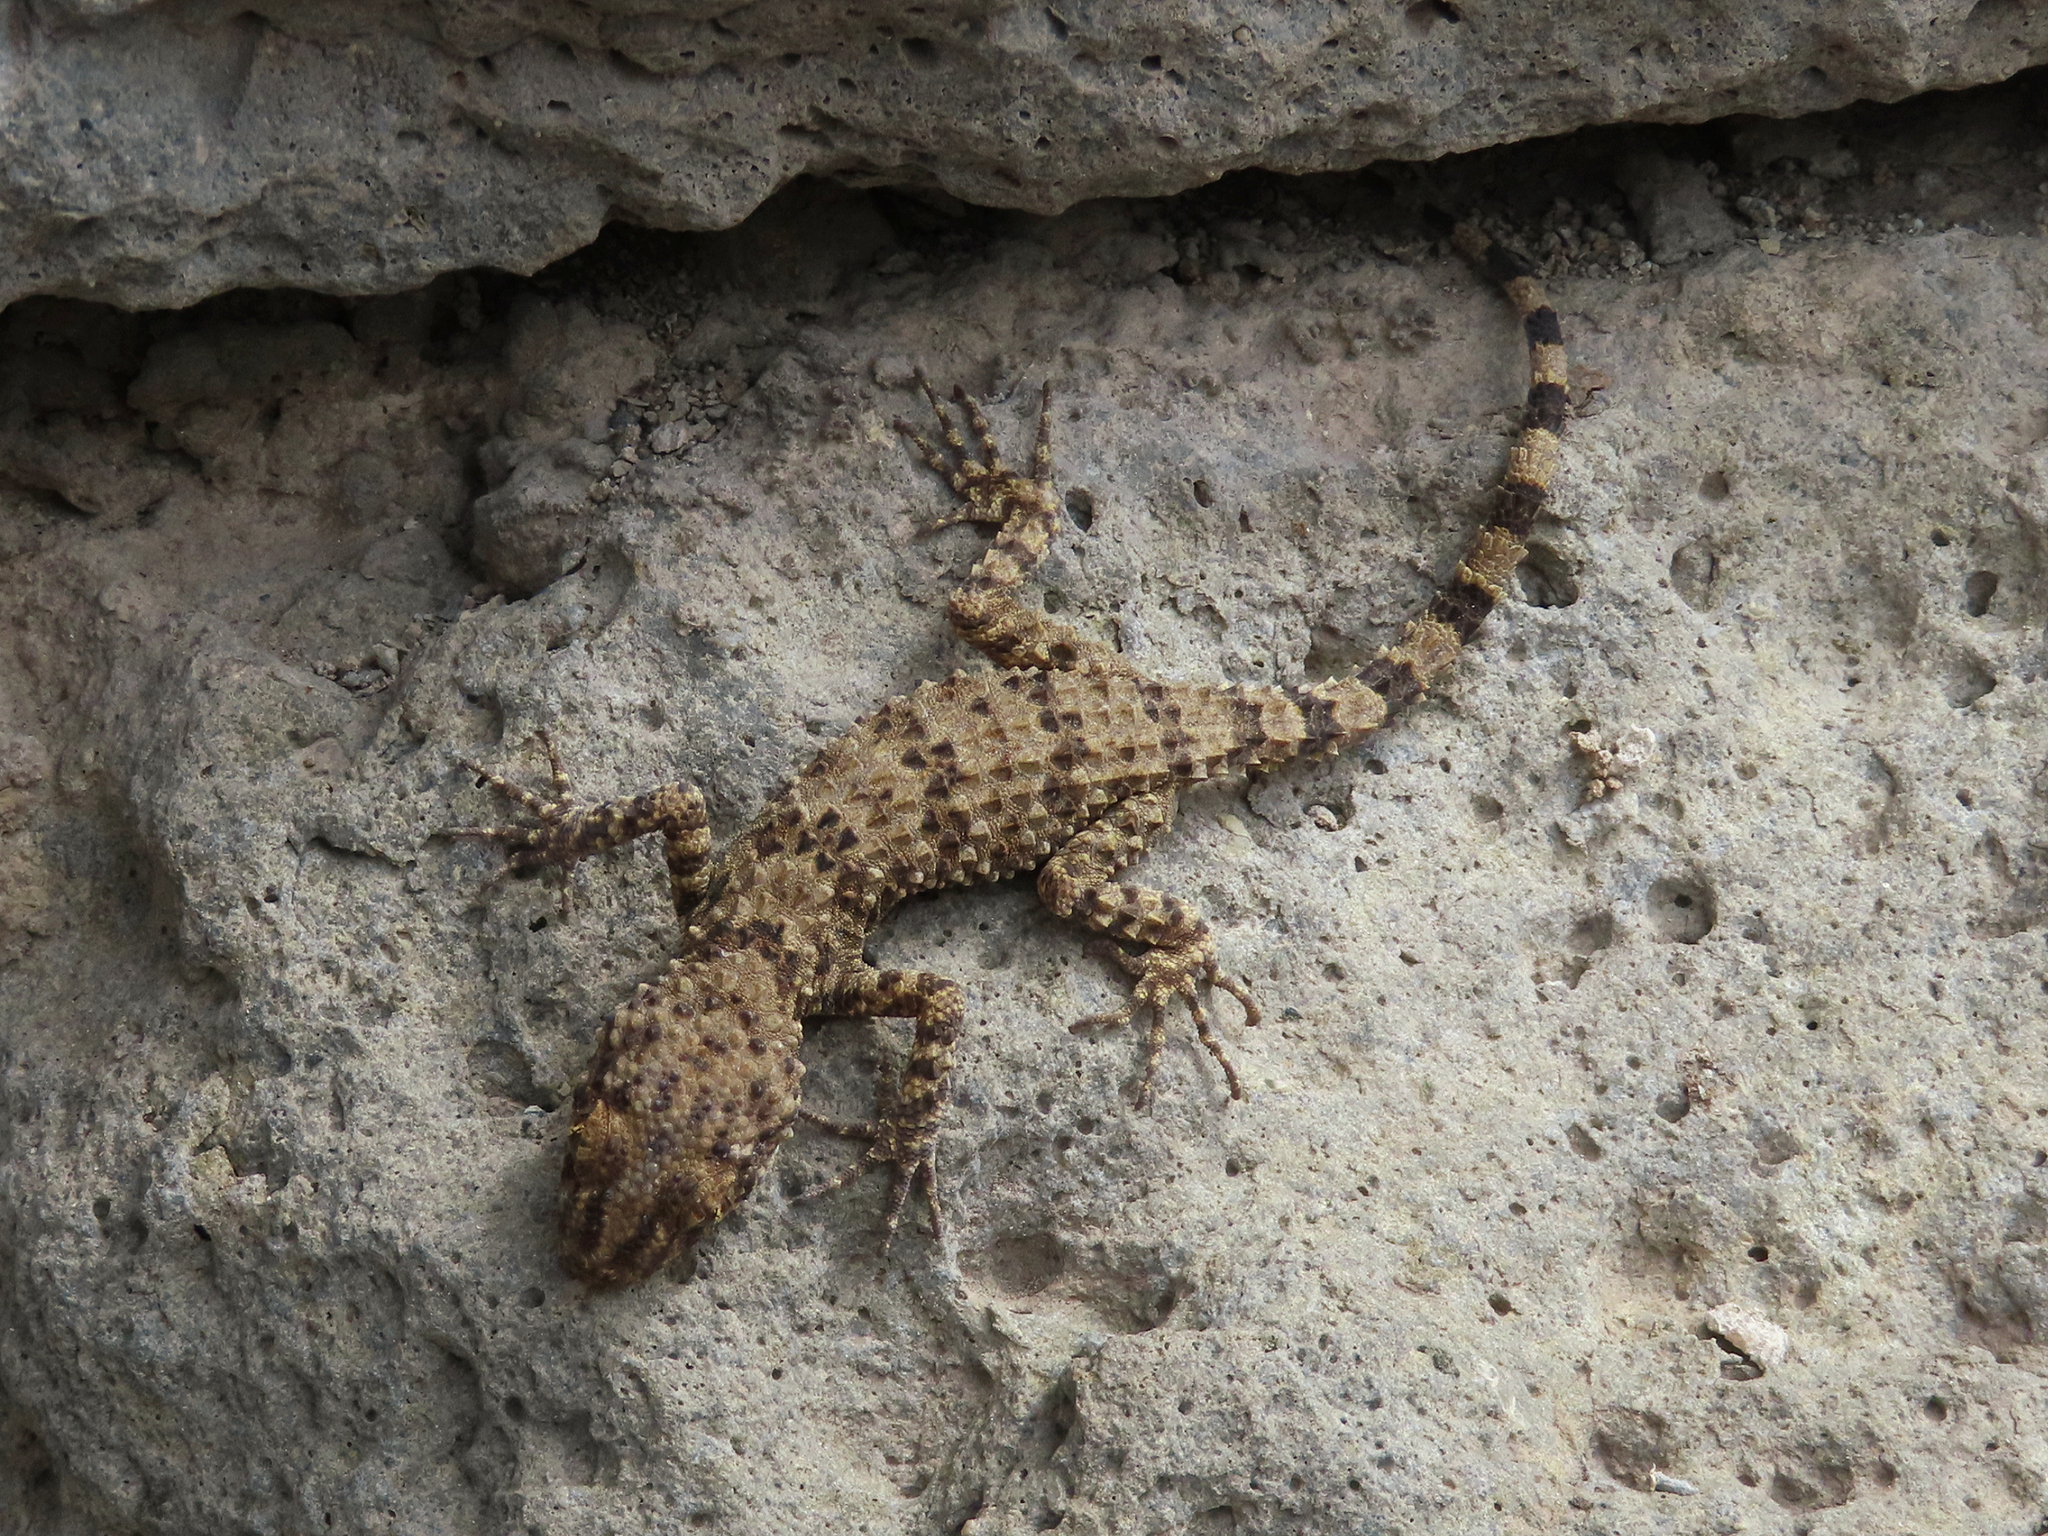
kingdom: Animalia
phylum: Chordata
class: Squamata
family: Gekkonidae
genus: Tenuidactylus
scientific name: Tenuidactylus caspius
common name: Caspian bent-toed gecko
